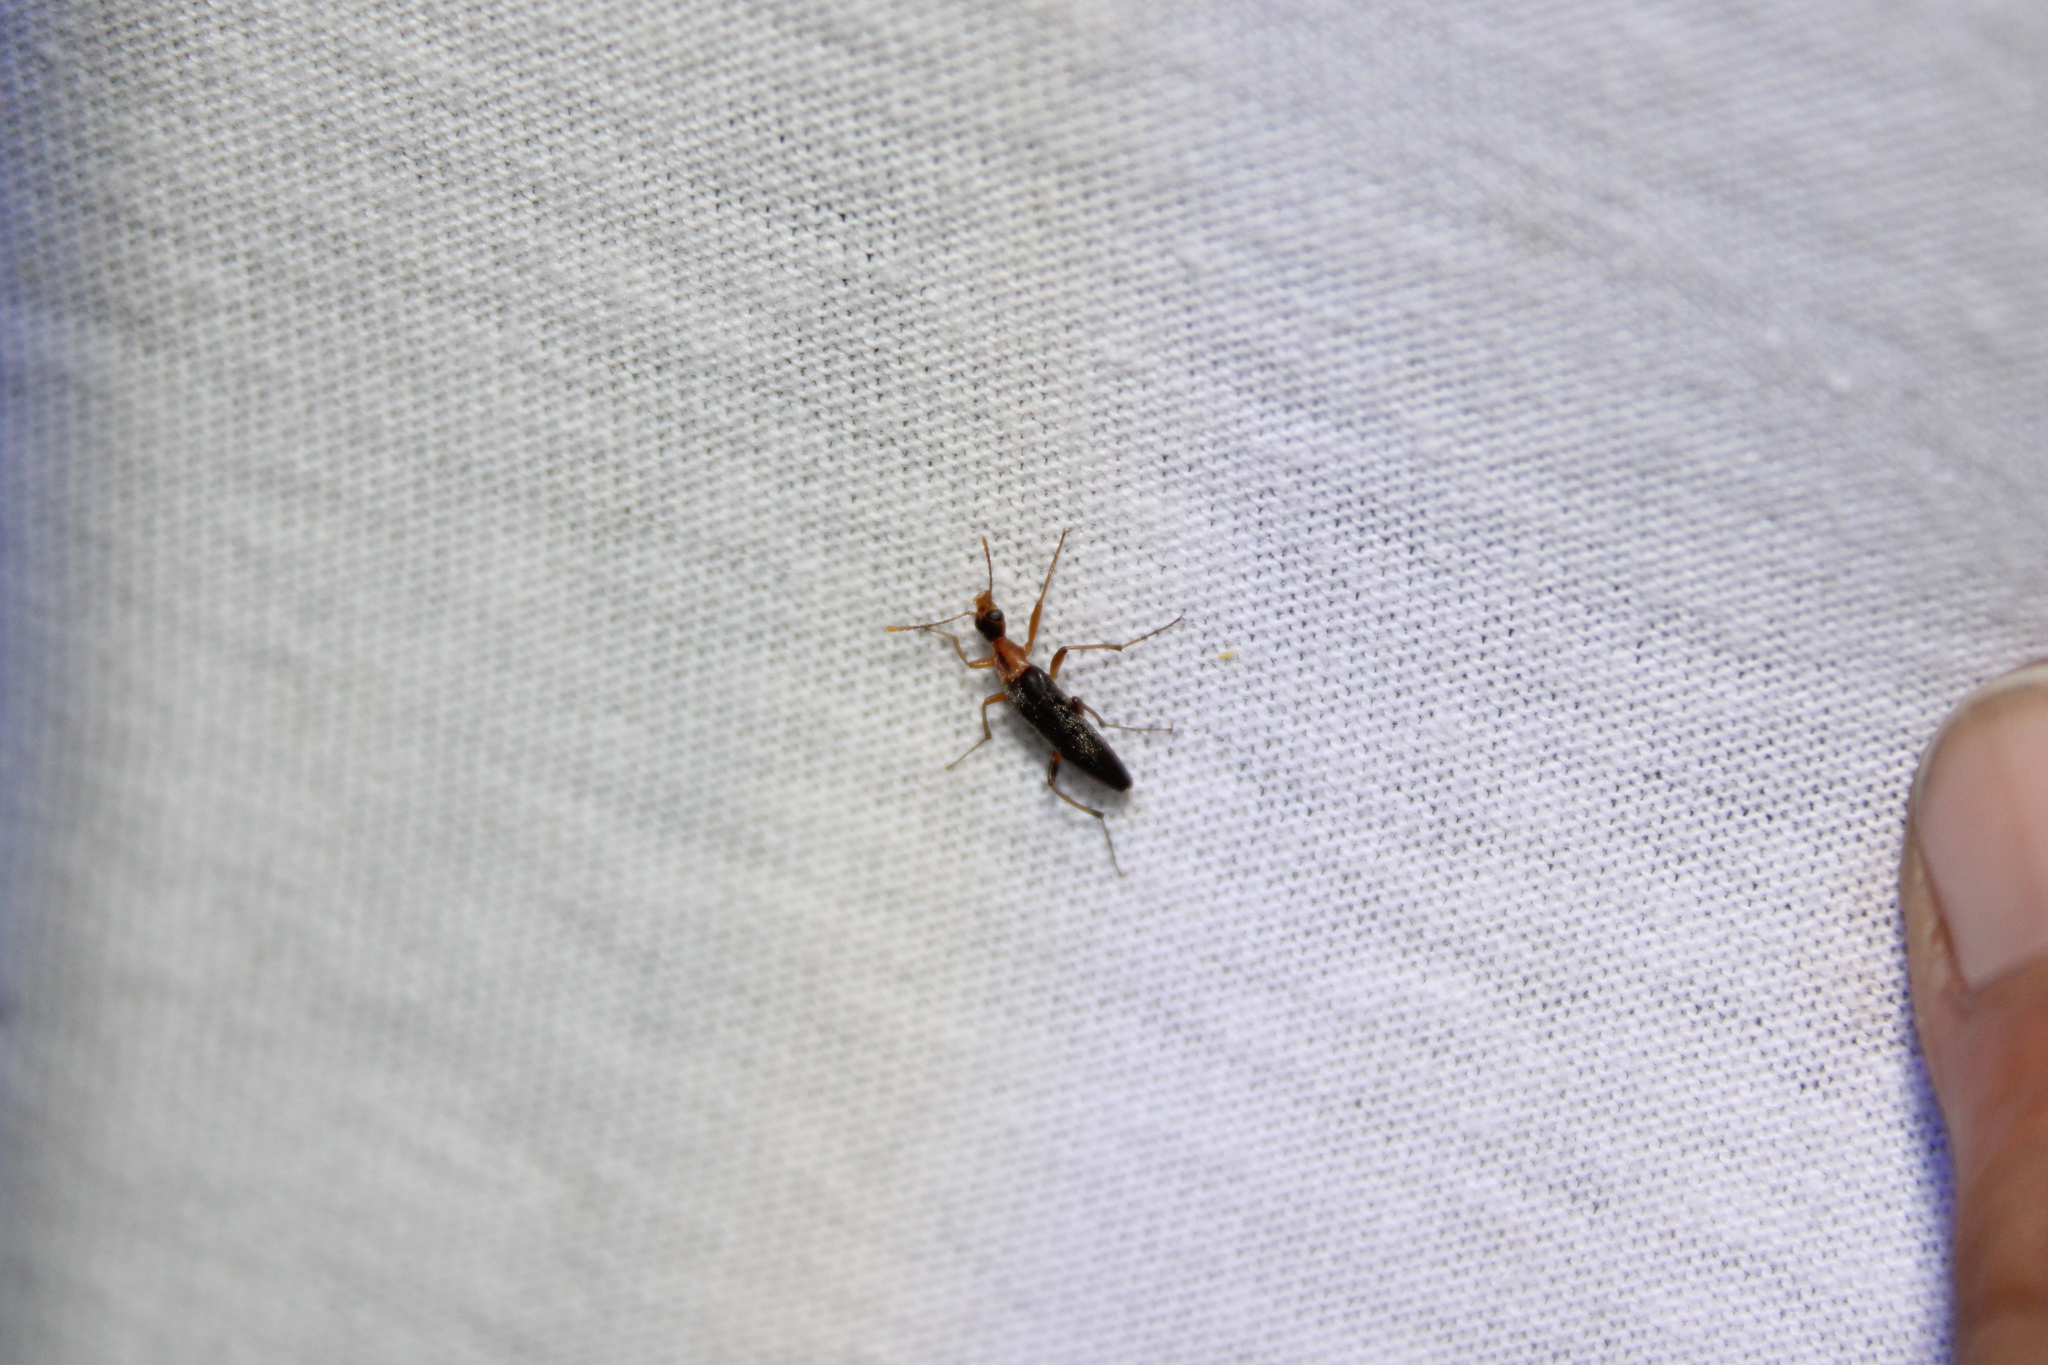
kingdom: Animalia
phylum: Arthropoda
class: Insecta
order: Coleoptera
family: Stenotrachelidae
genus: Cephaloon
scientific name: Cephaloon lepturides
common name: False leptura beetle
